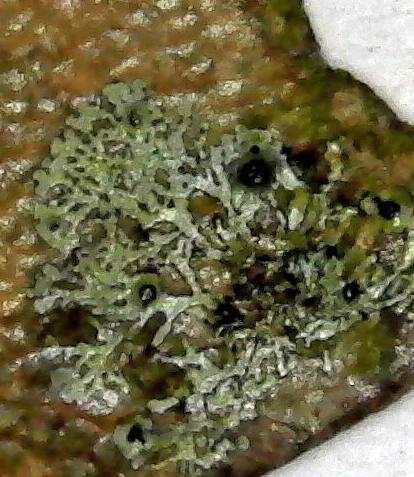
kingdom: Fungi
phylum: Ascomycota
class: Dothideomycetes
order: Strigulales
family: Strigulaceae
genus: Puiggariella
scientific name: Puiggariella nemathora
